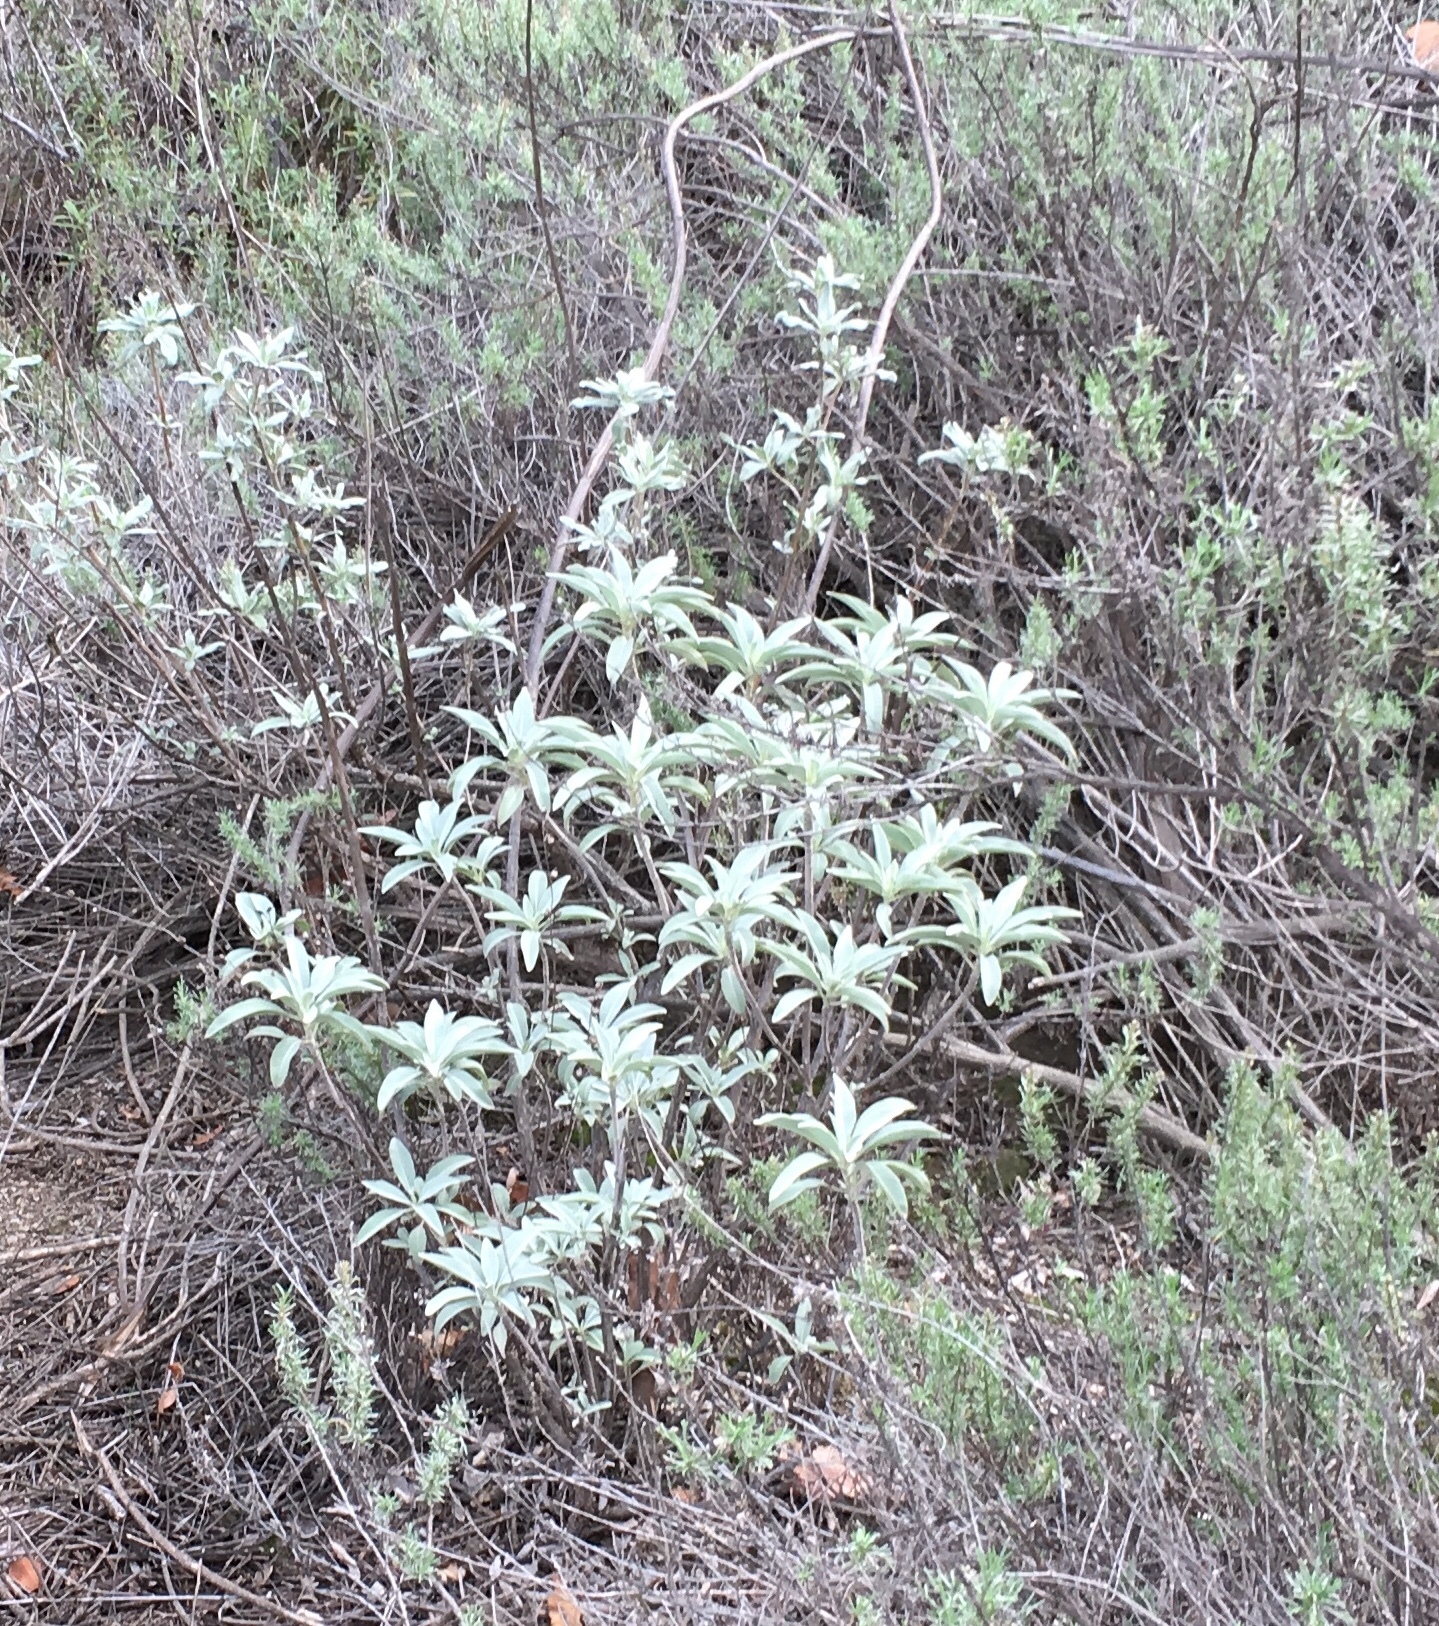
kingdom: Plantae
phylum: Tracheophyta
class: Magnoliopsida
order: Lamiales
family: Lamiaceae
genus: Salvia
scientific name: Salvia apiana
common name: White sage
